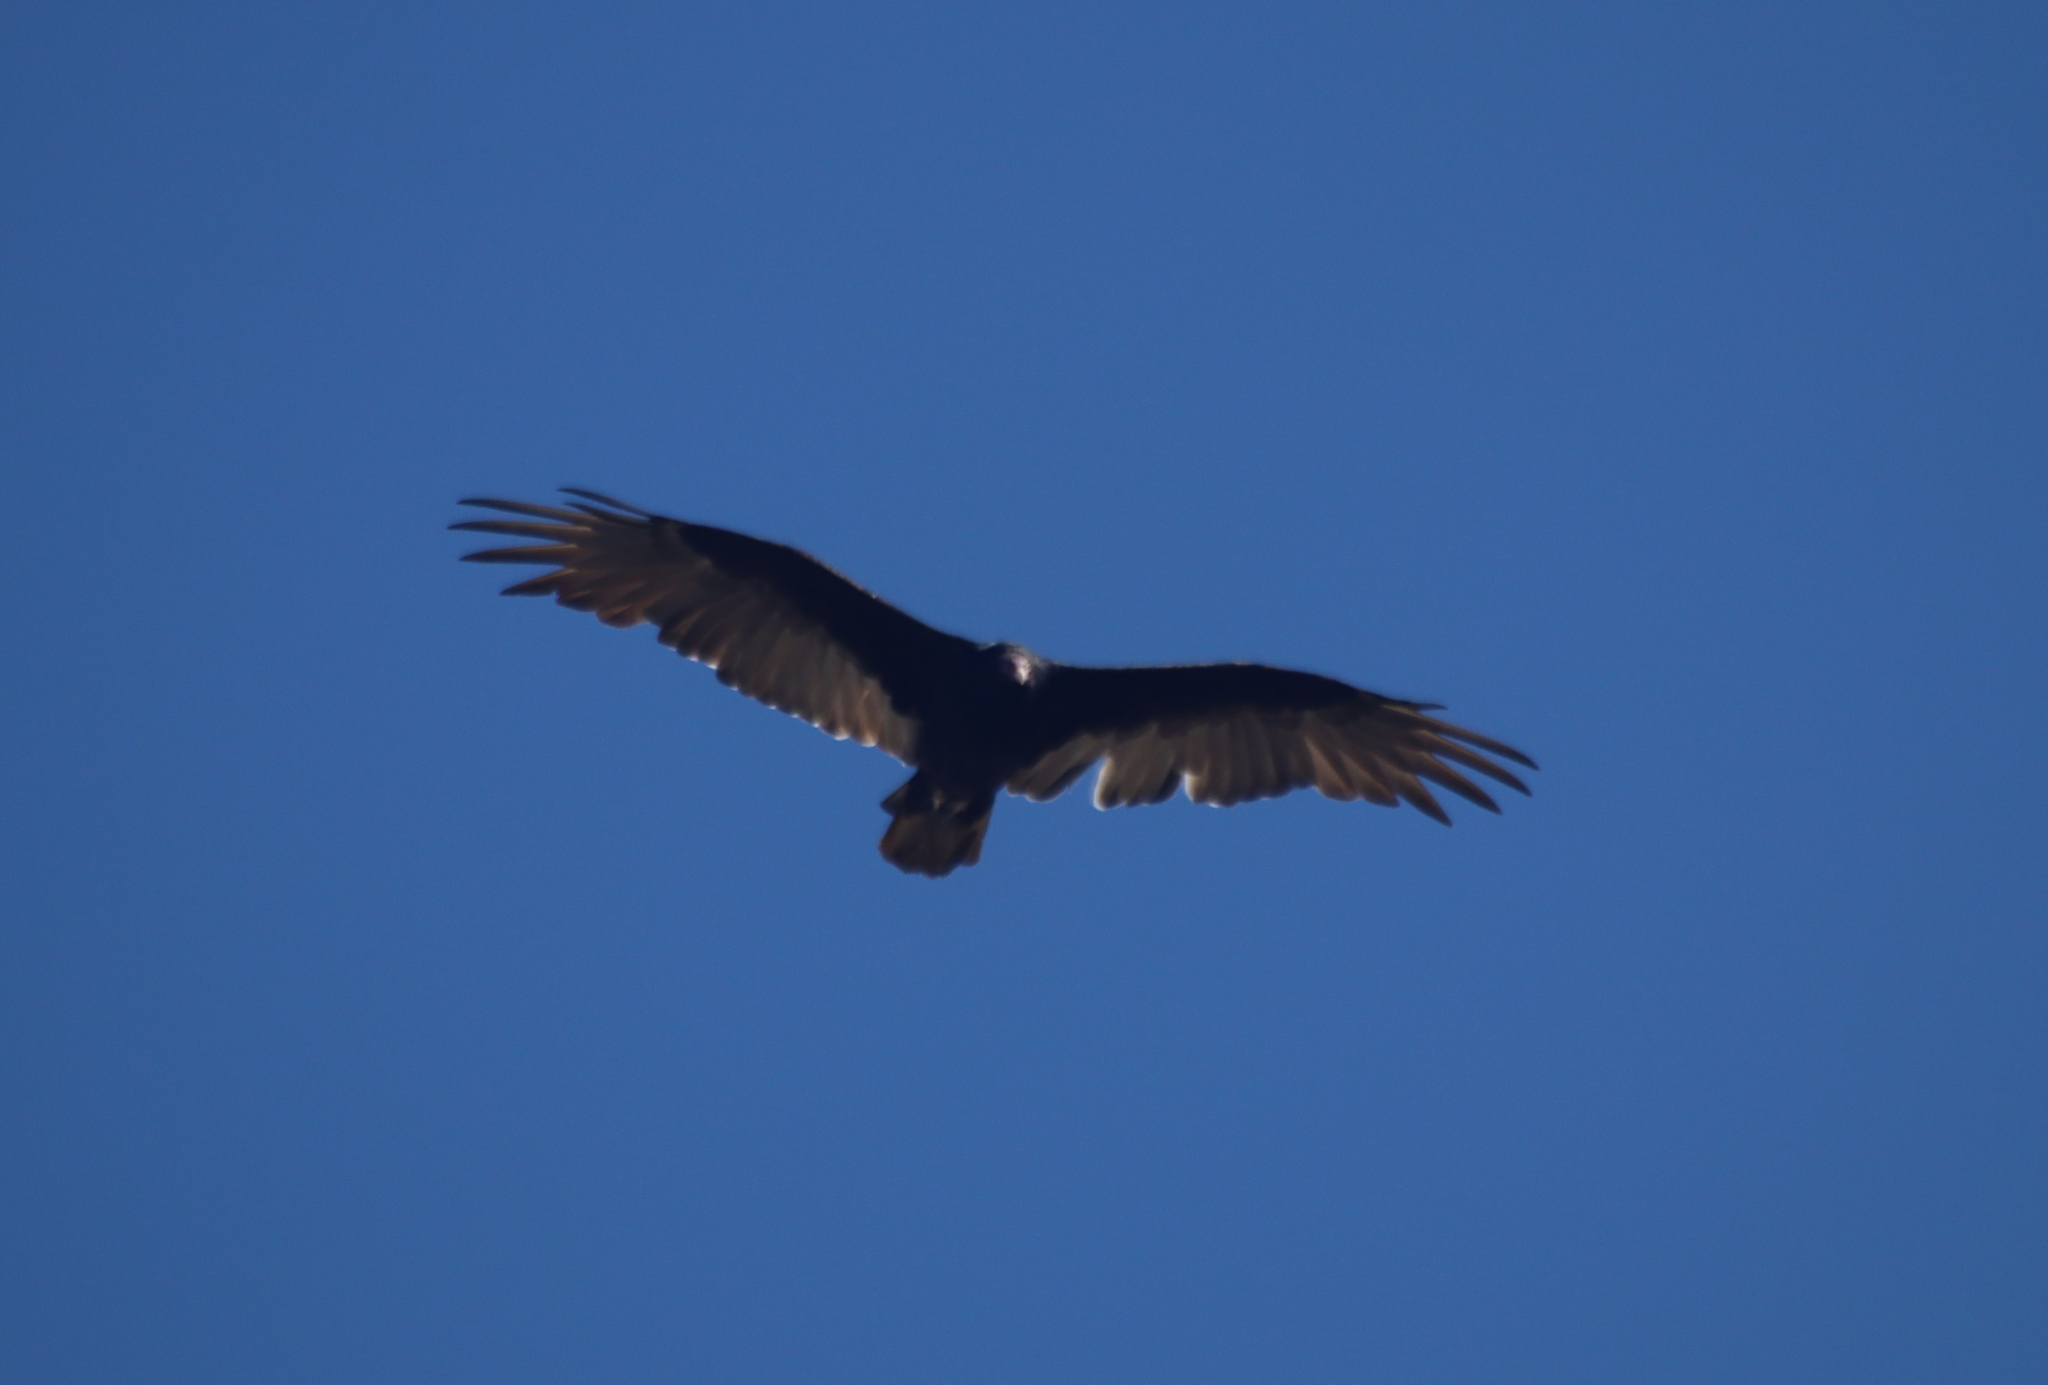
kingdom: Animalia
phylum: Chordata
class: Aves
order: Accipitriformes
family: Cathartidae
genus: Cathartes
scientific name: Cathartes aura
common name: Turkey vulture
